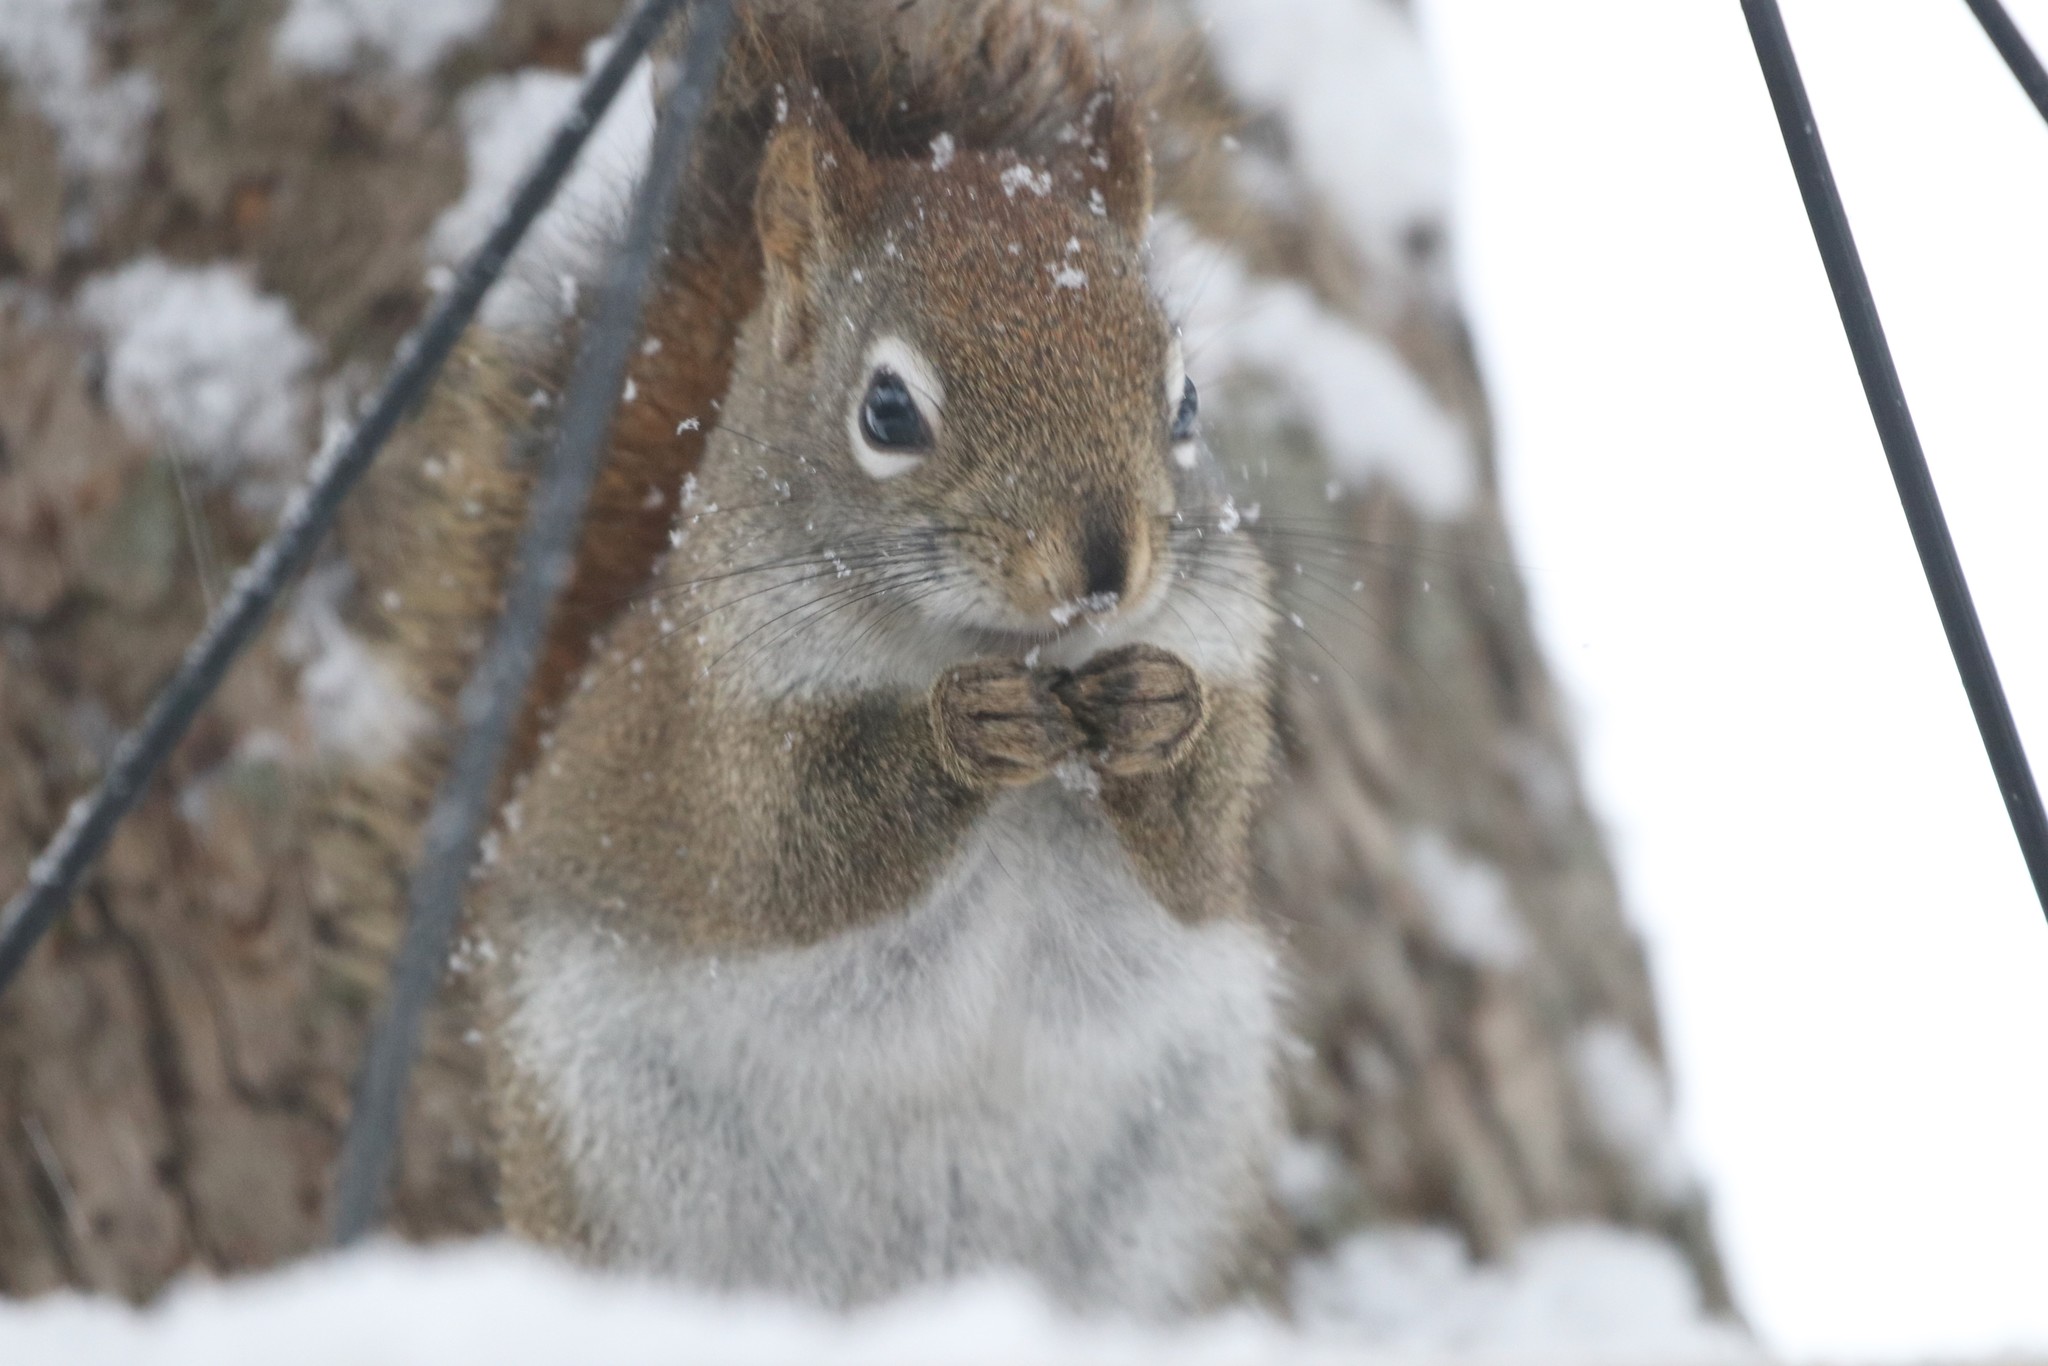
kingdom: Animalia
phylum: Chordata
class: Mammalia
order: Rodentia
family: Sciuridae
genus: Tamiasciurus
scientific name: Tamiasciurus hudsonicus
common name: Red squirrel
